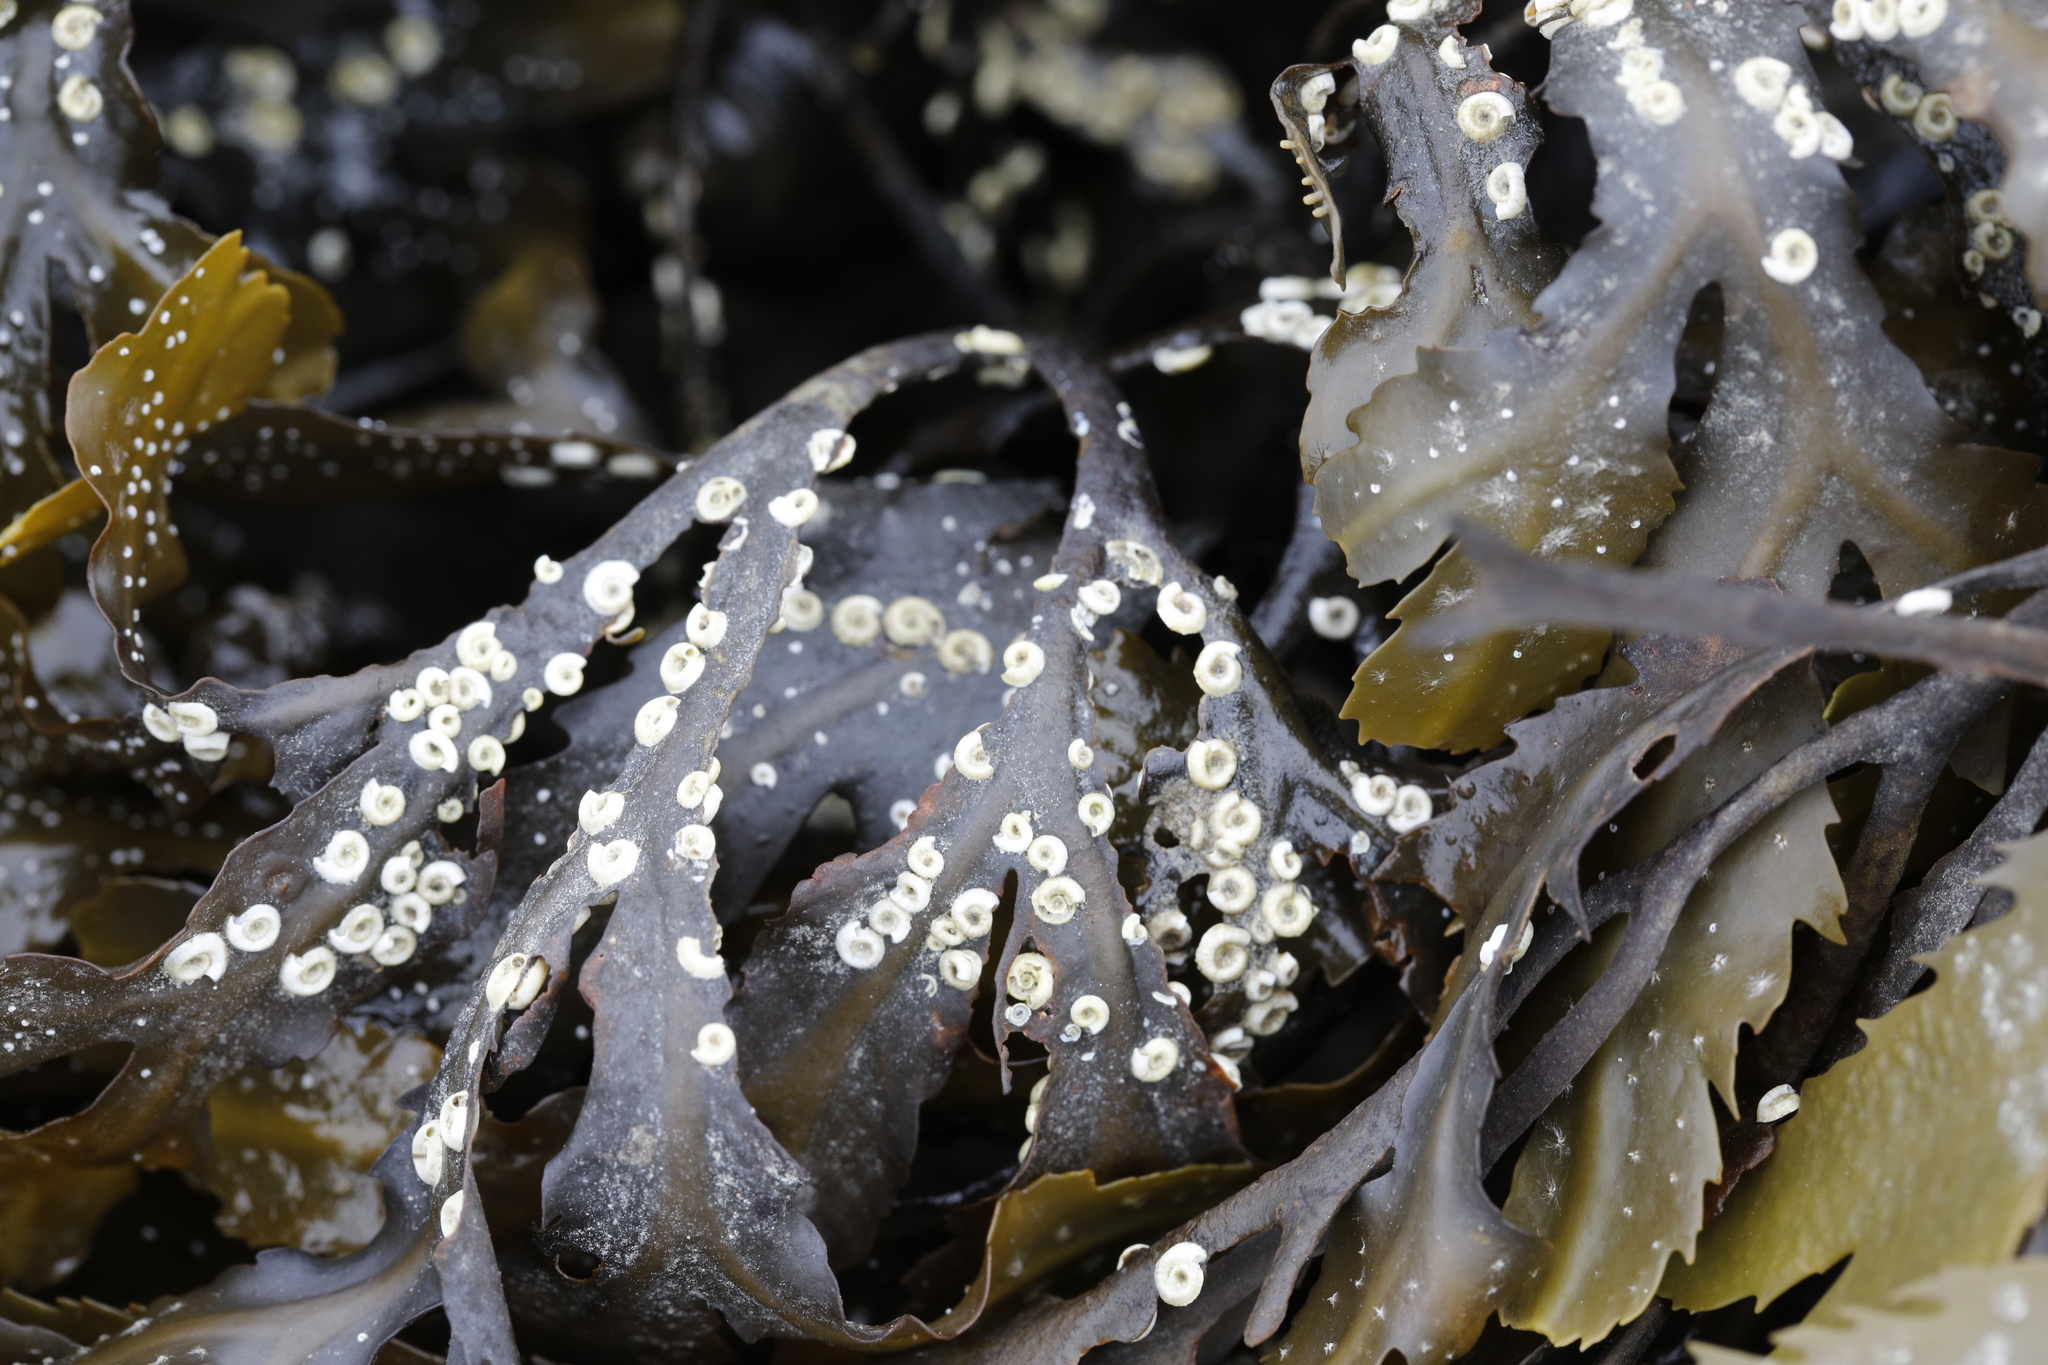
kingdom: Animalia
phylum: Annelida
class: Polychaeta
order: Sabellida
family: Serpulidae
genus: Spirorbis
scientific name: Spirorbis spirorbis
